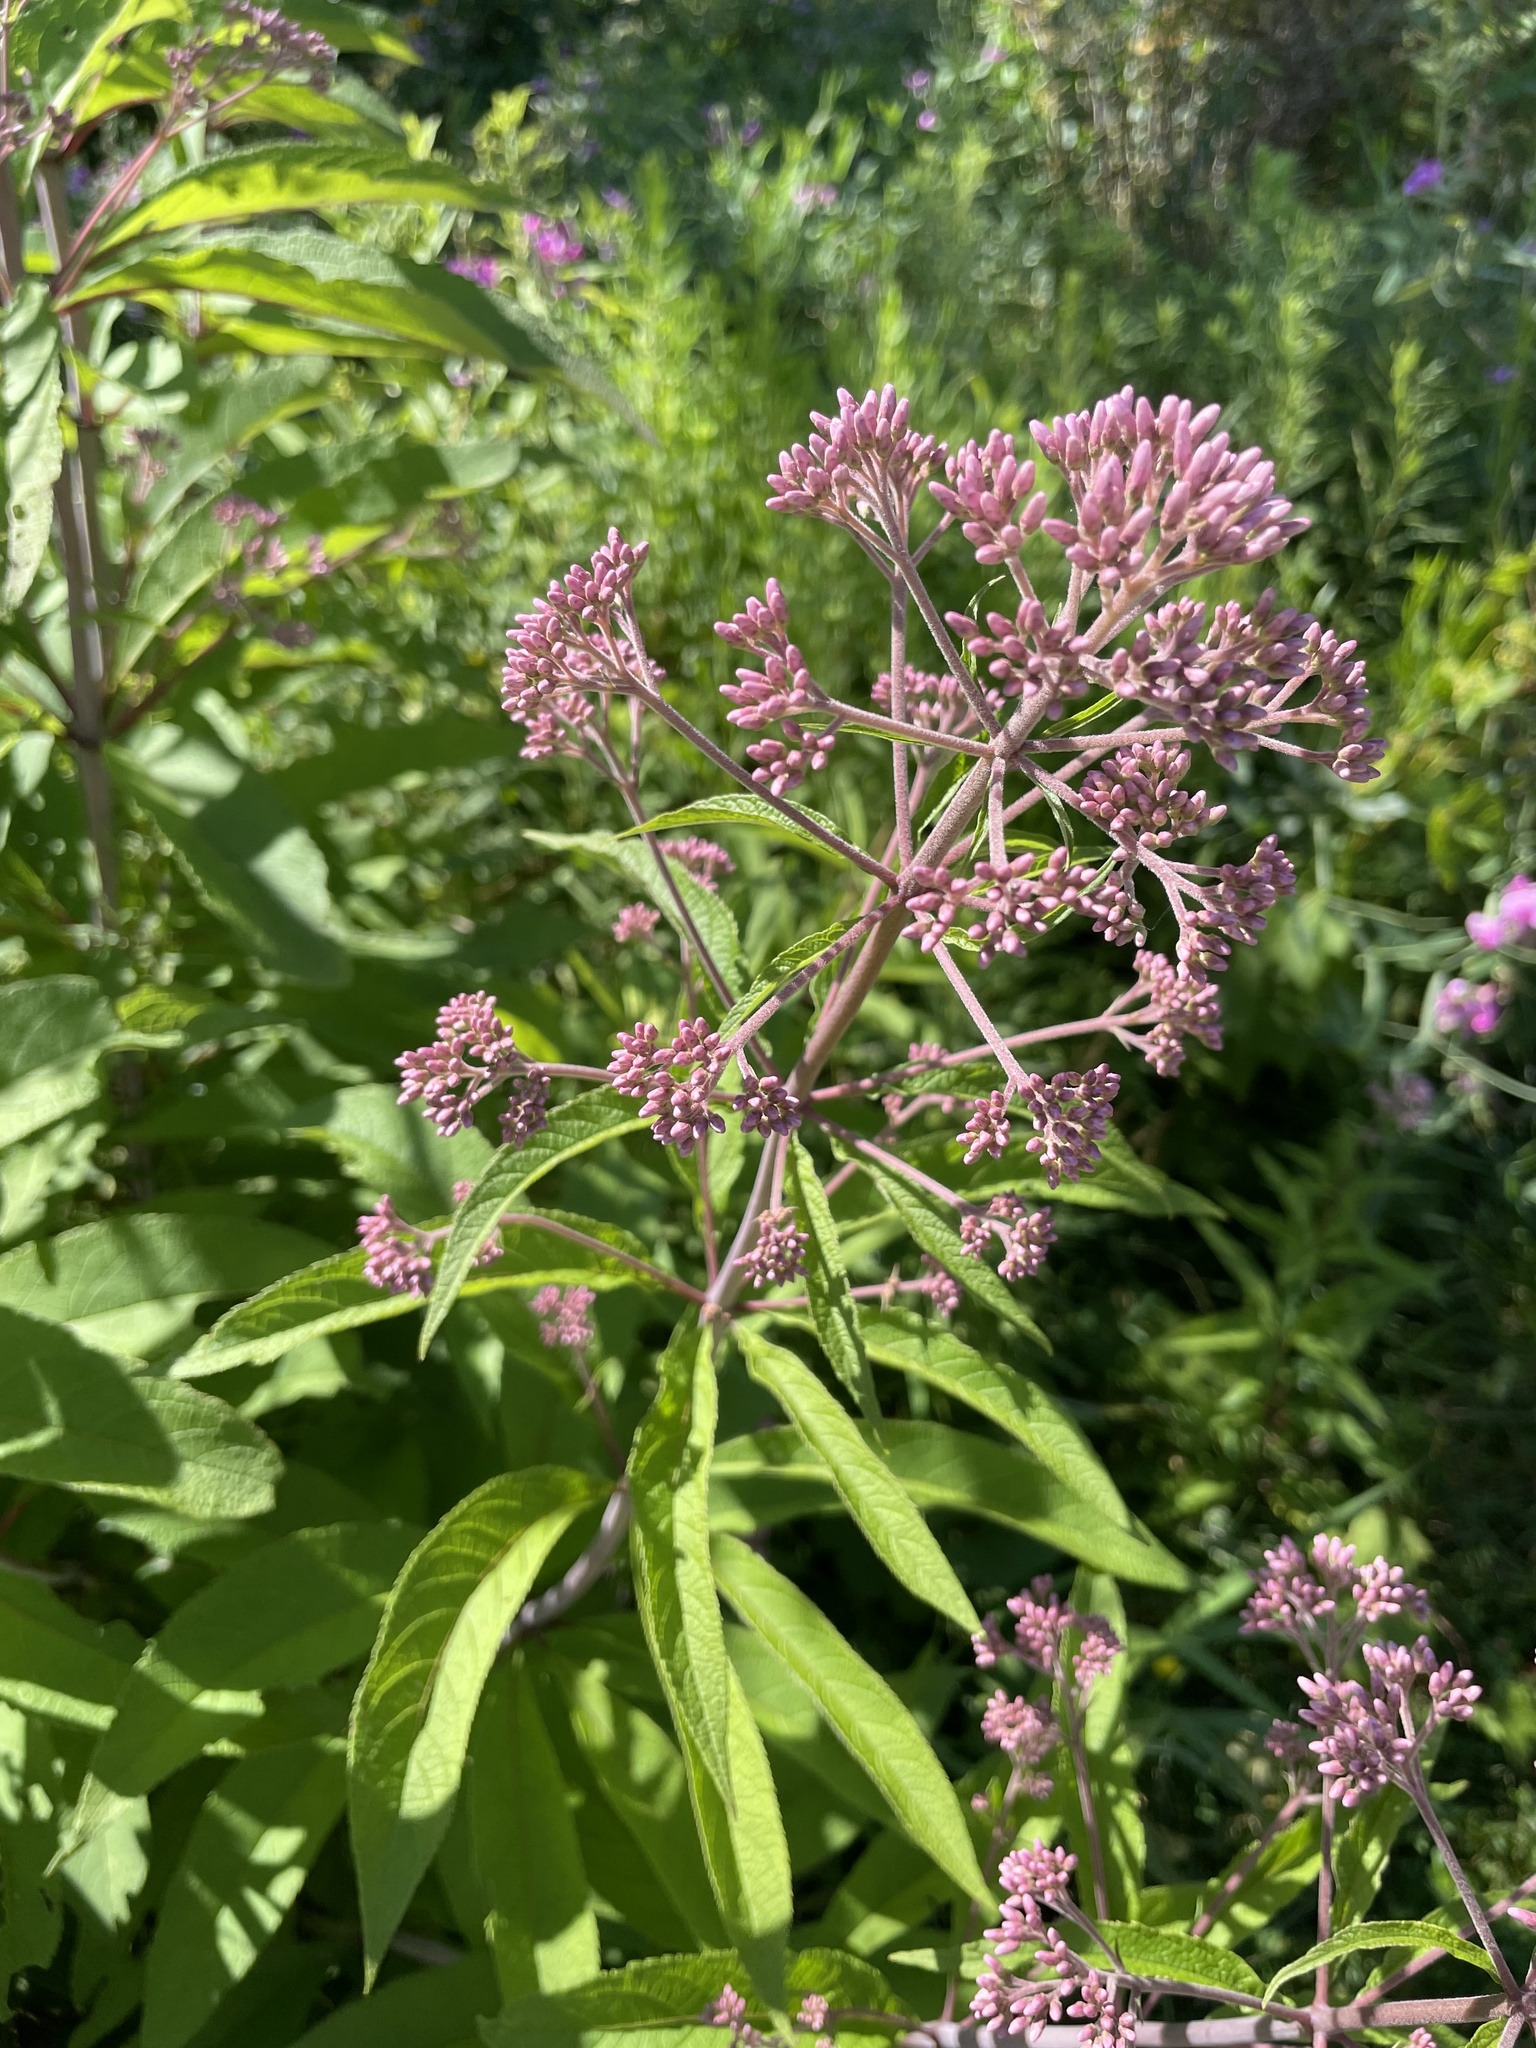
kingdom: Plantae
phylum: Tracheophyta
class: Magnoliopsida
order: Asterales
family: Asteraceae
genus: Eutrochium
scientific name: Eutrochium fistulosum
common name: Trumpetweed
